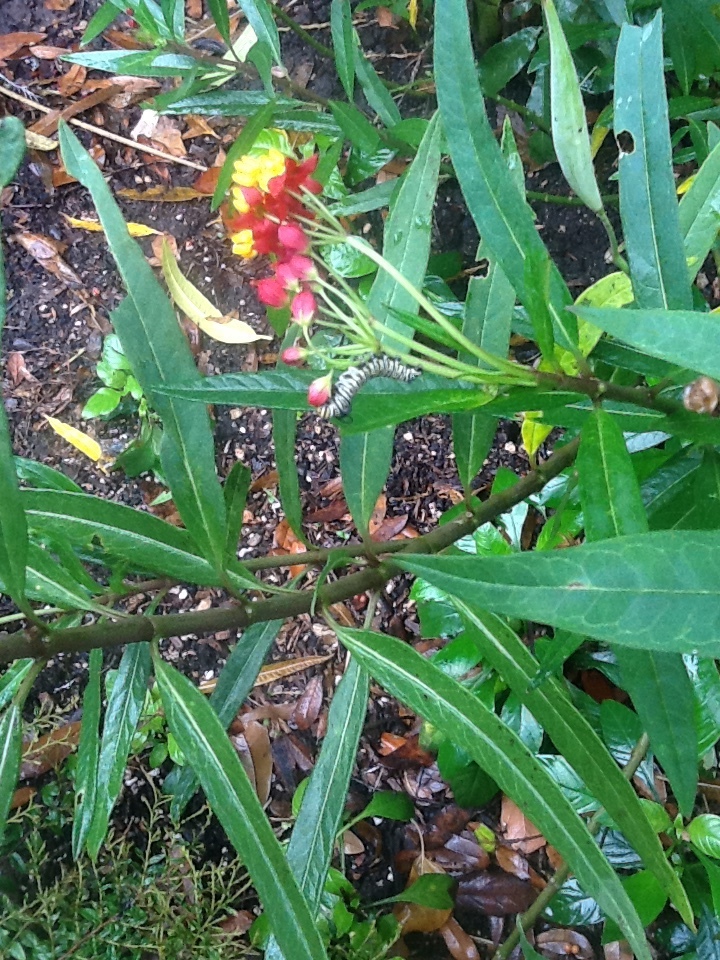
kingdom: Animalia
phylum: Arthropoda
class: Insecta
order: Lepidoptera
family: Nymphalidae
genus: Danaus
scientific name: Danaus plexippus
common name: Monarch
